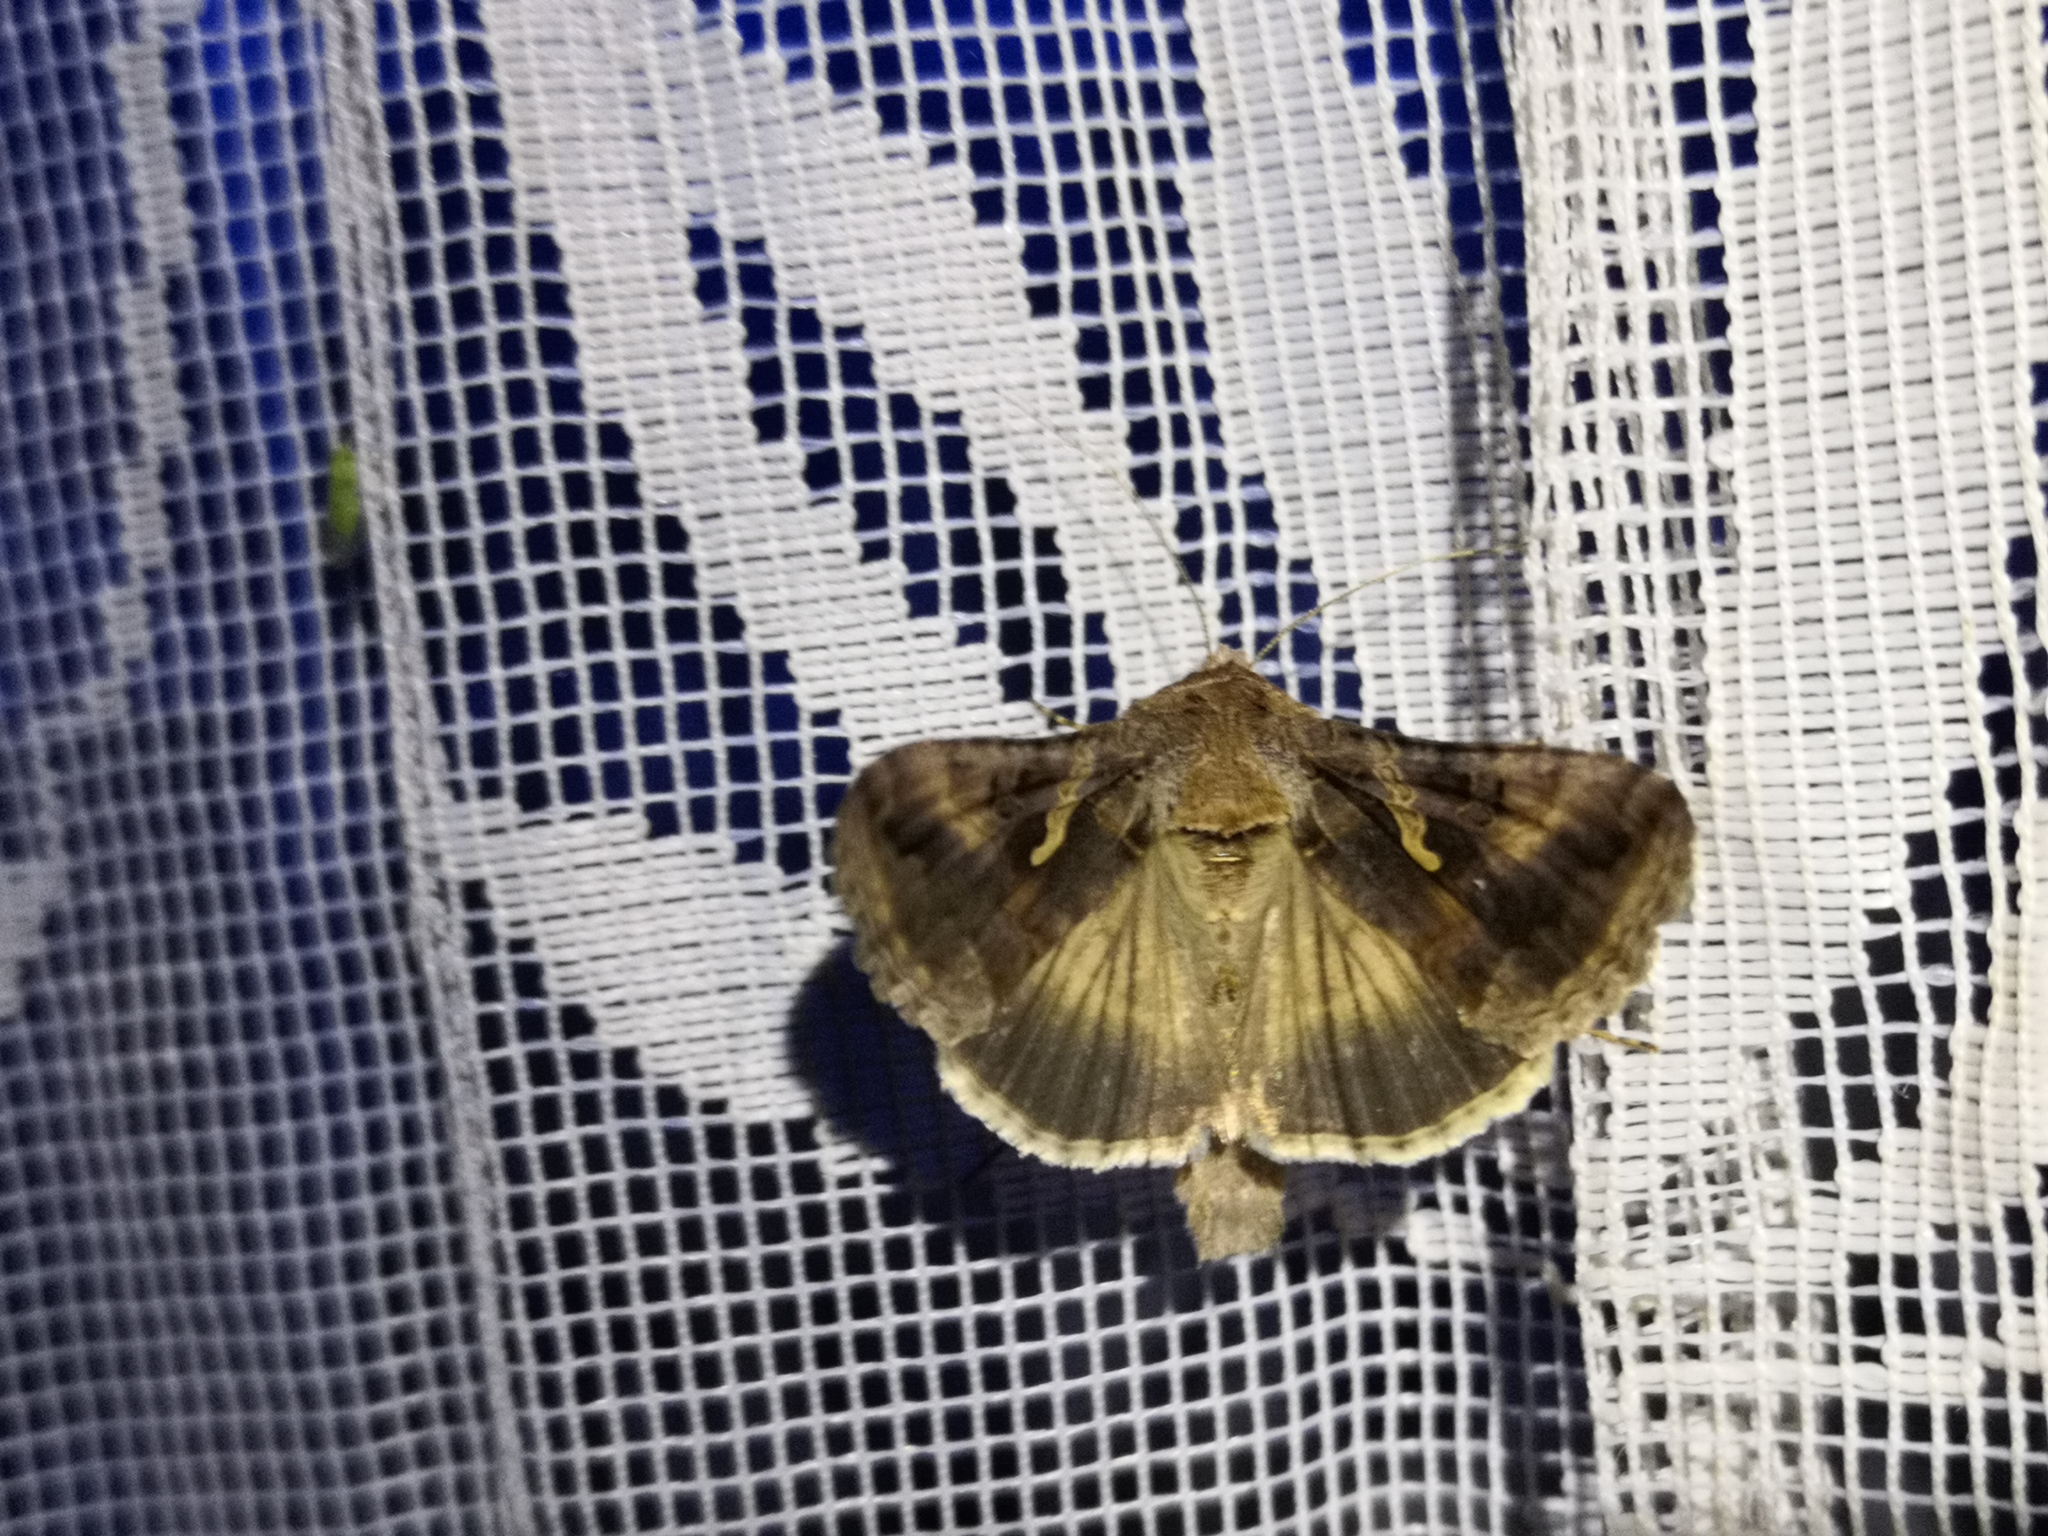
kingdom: Animalia
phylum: Arthropoda
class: Insecta
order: Lepidoptera
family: Noctuidae
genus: Autographa
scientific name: Autographa gamma
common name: Silver y
